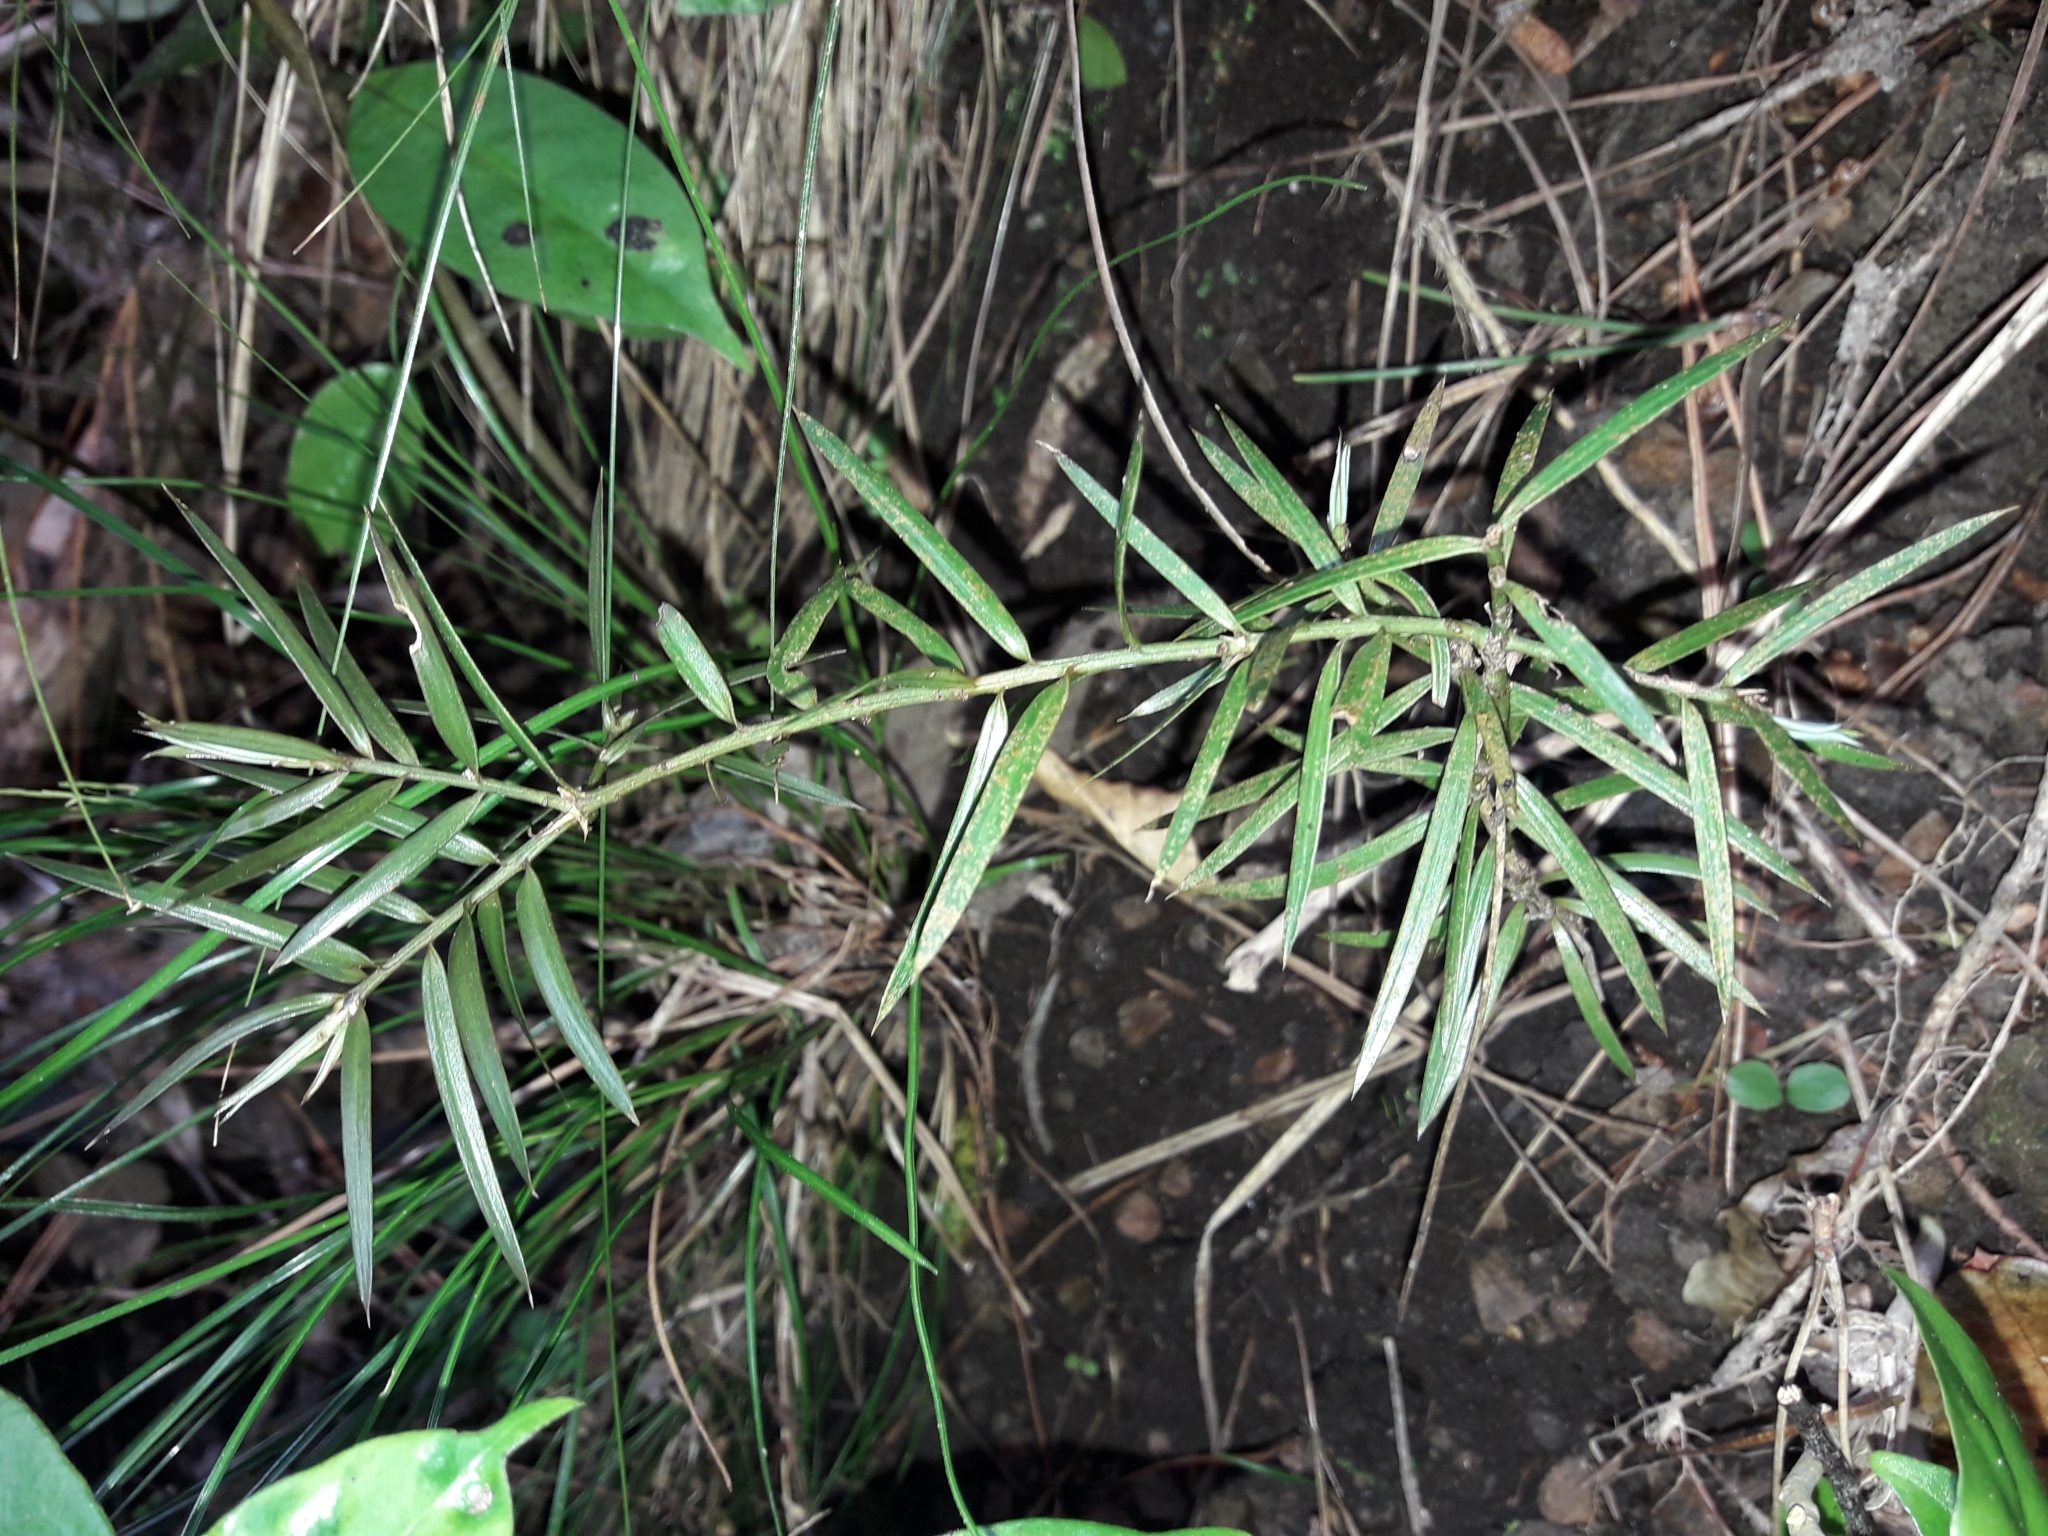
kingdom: Plantae
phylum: Tracheophyta
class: Pinopsida
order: Pinales
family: Podocarpaceae
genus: Podocarpus
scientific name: Podocarpus totara
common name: Totara
